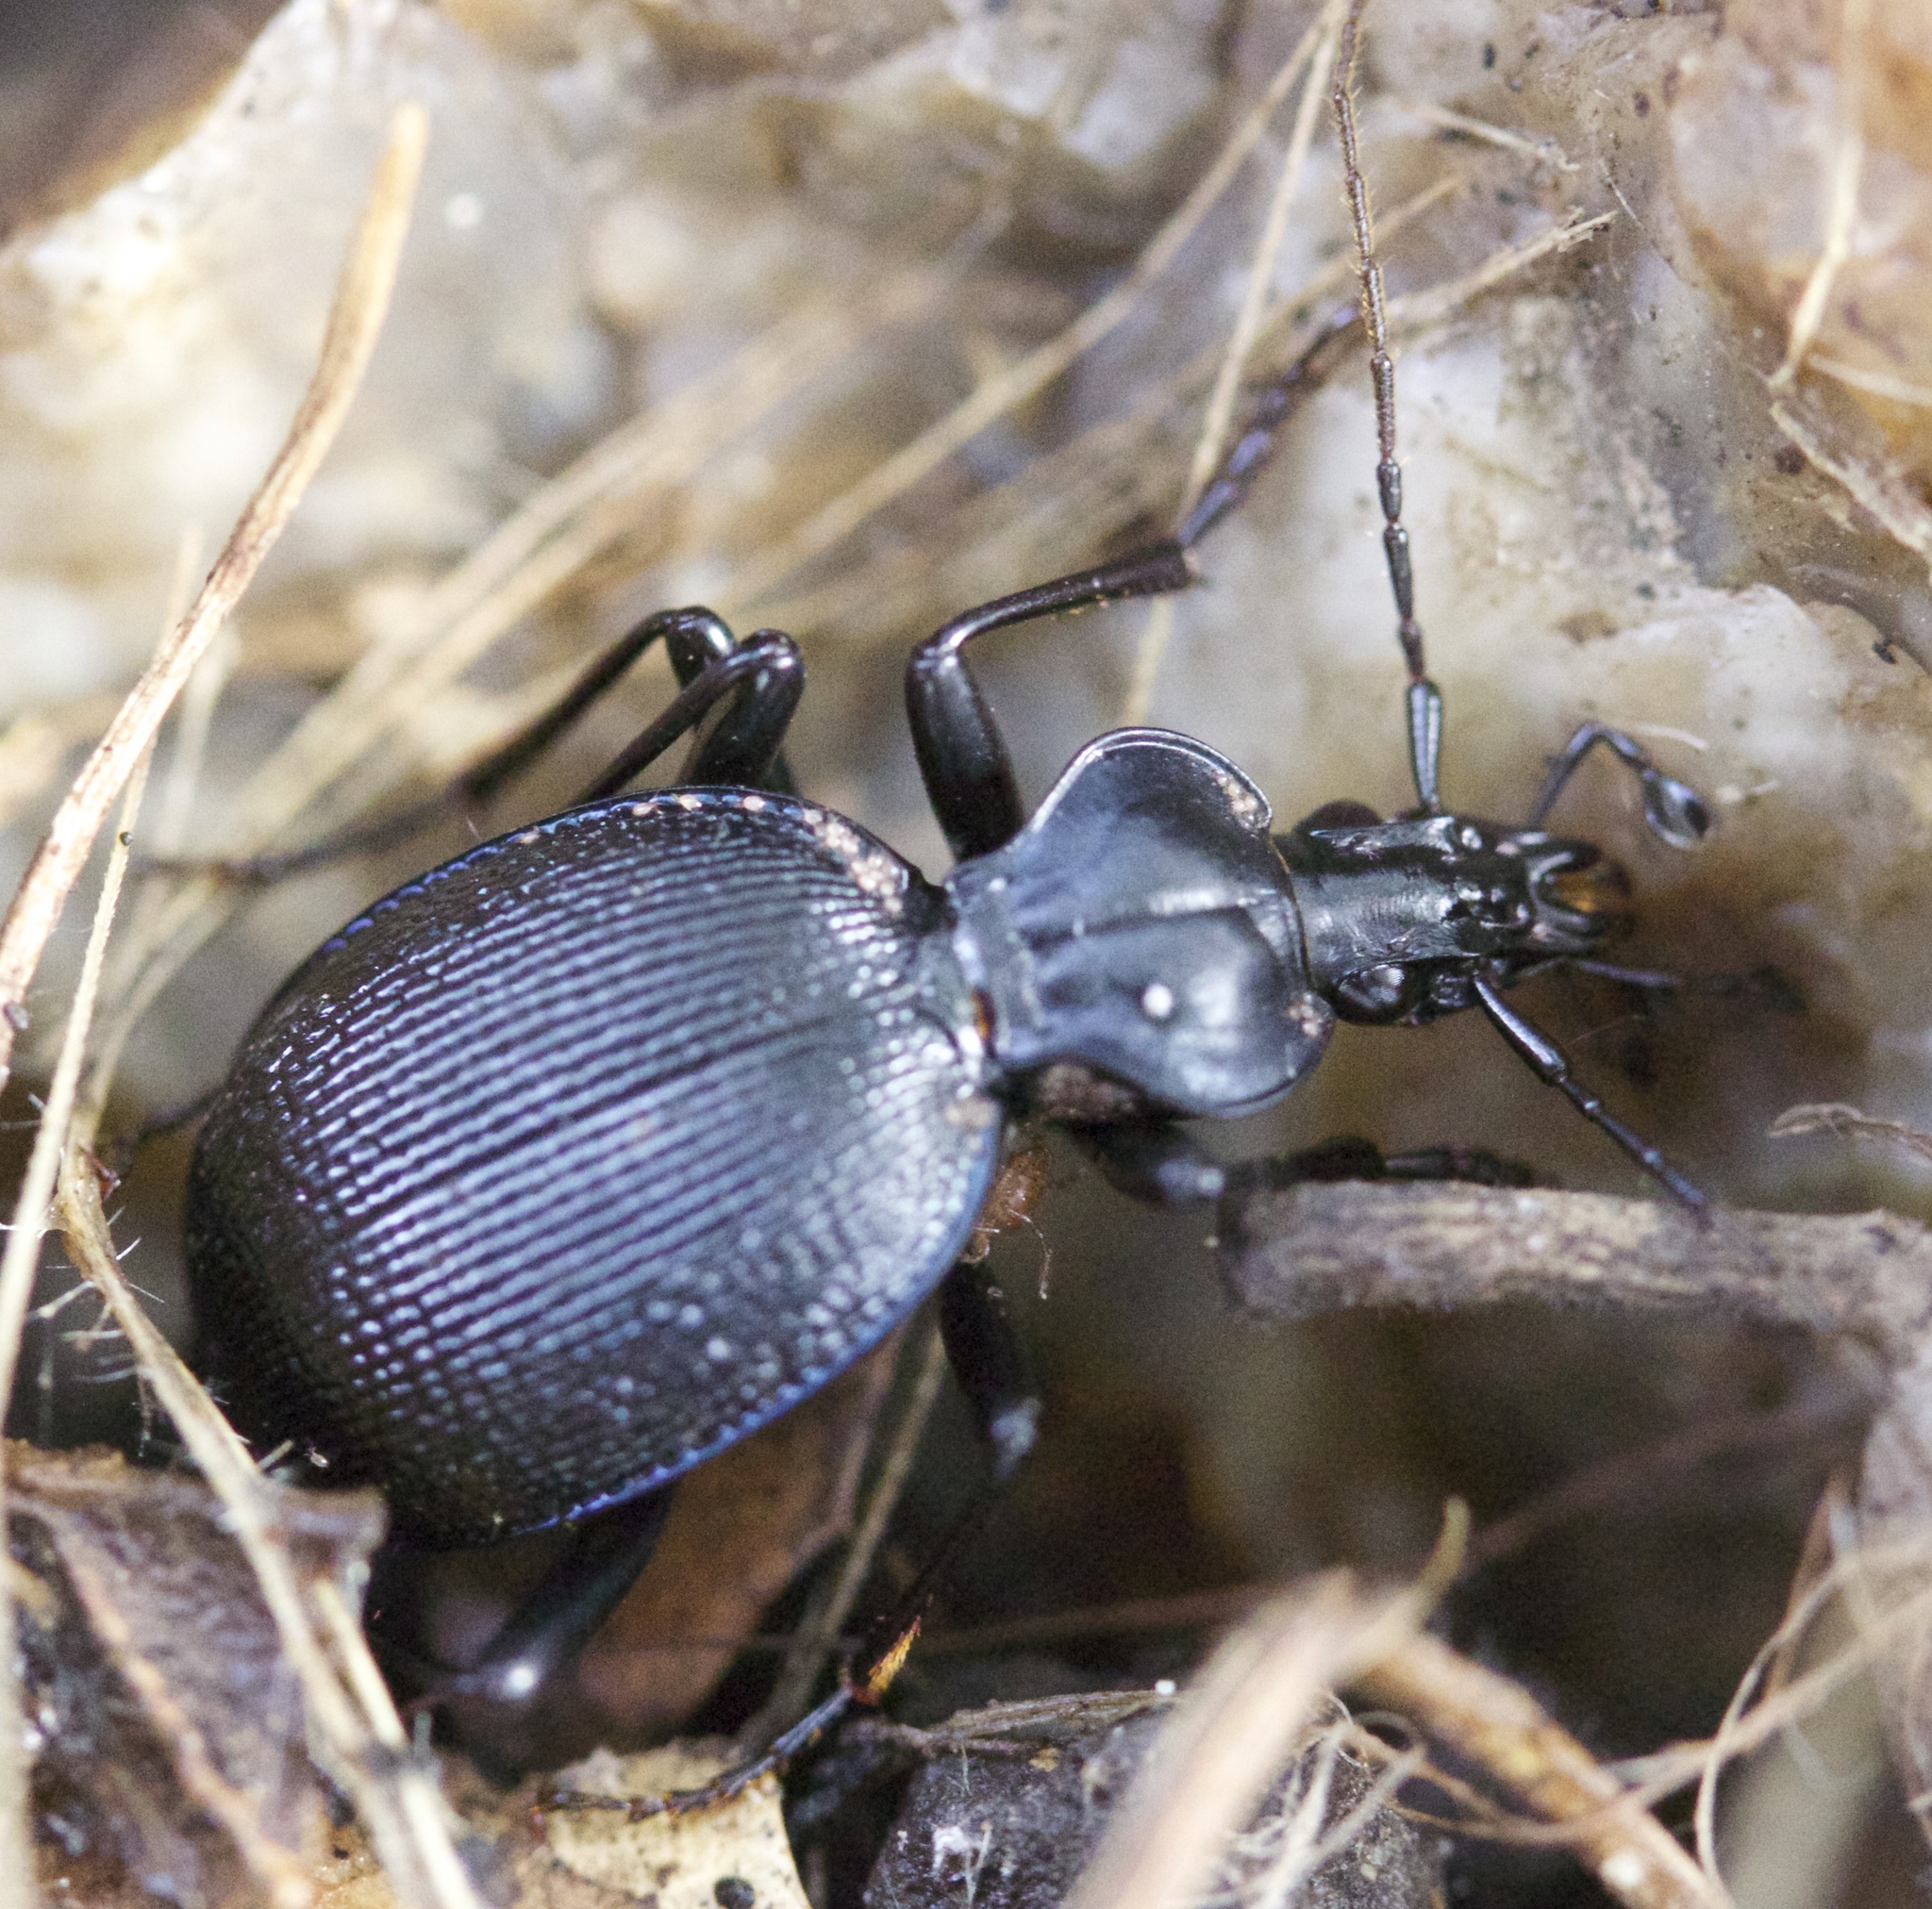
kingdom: Animalia
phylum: Arthropoda
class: Insecta
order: Coleoptera
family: Carabidae
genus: Scaphinotus
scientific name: Scaphinotus interruptus
